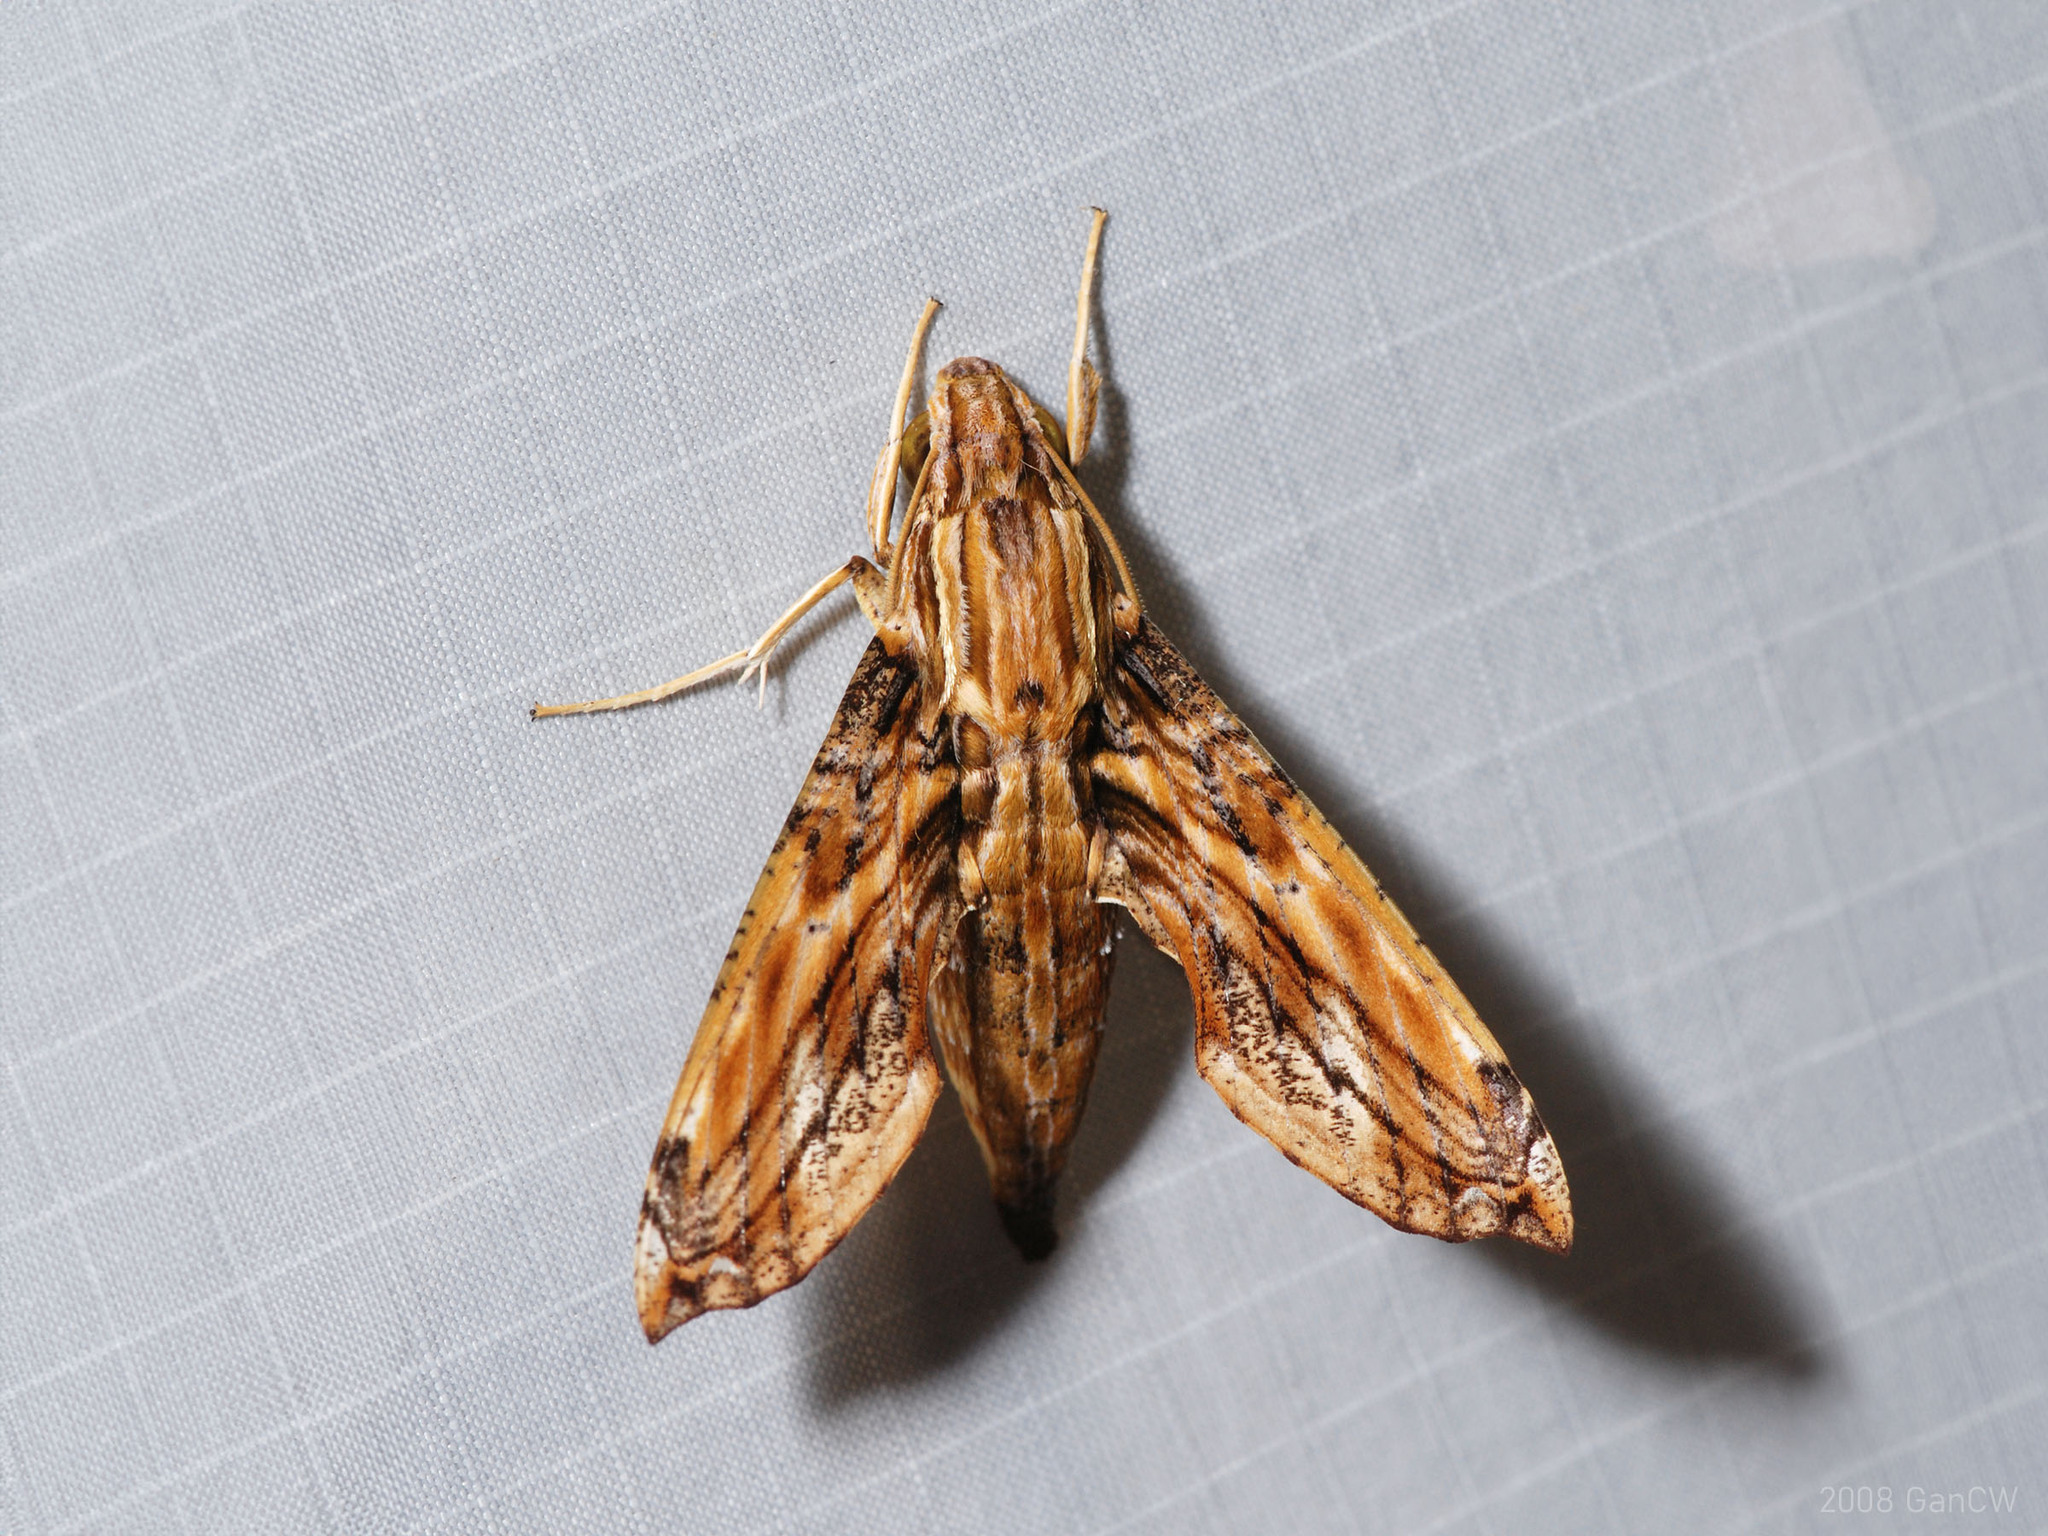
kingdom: Animalia
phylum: Arthropoda
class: Insecta
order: Lepidoptera
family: Sphingidae
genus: Eupanacra
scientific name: Eupanacra variolosa
